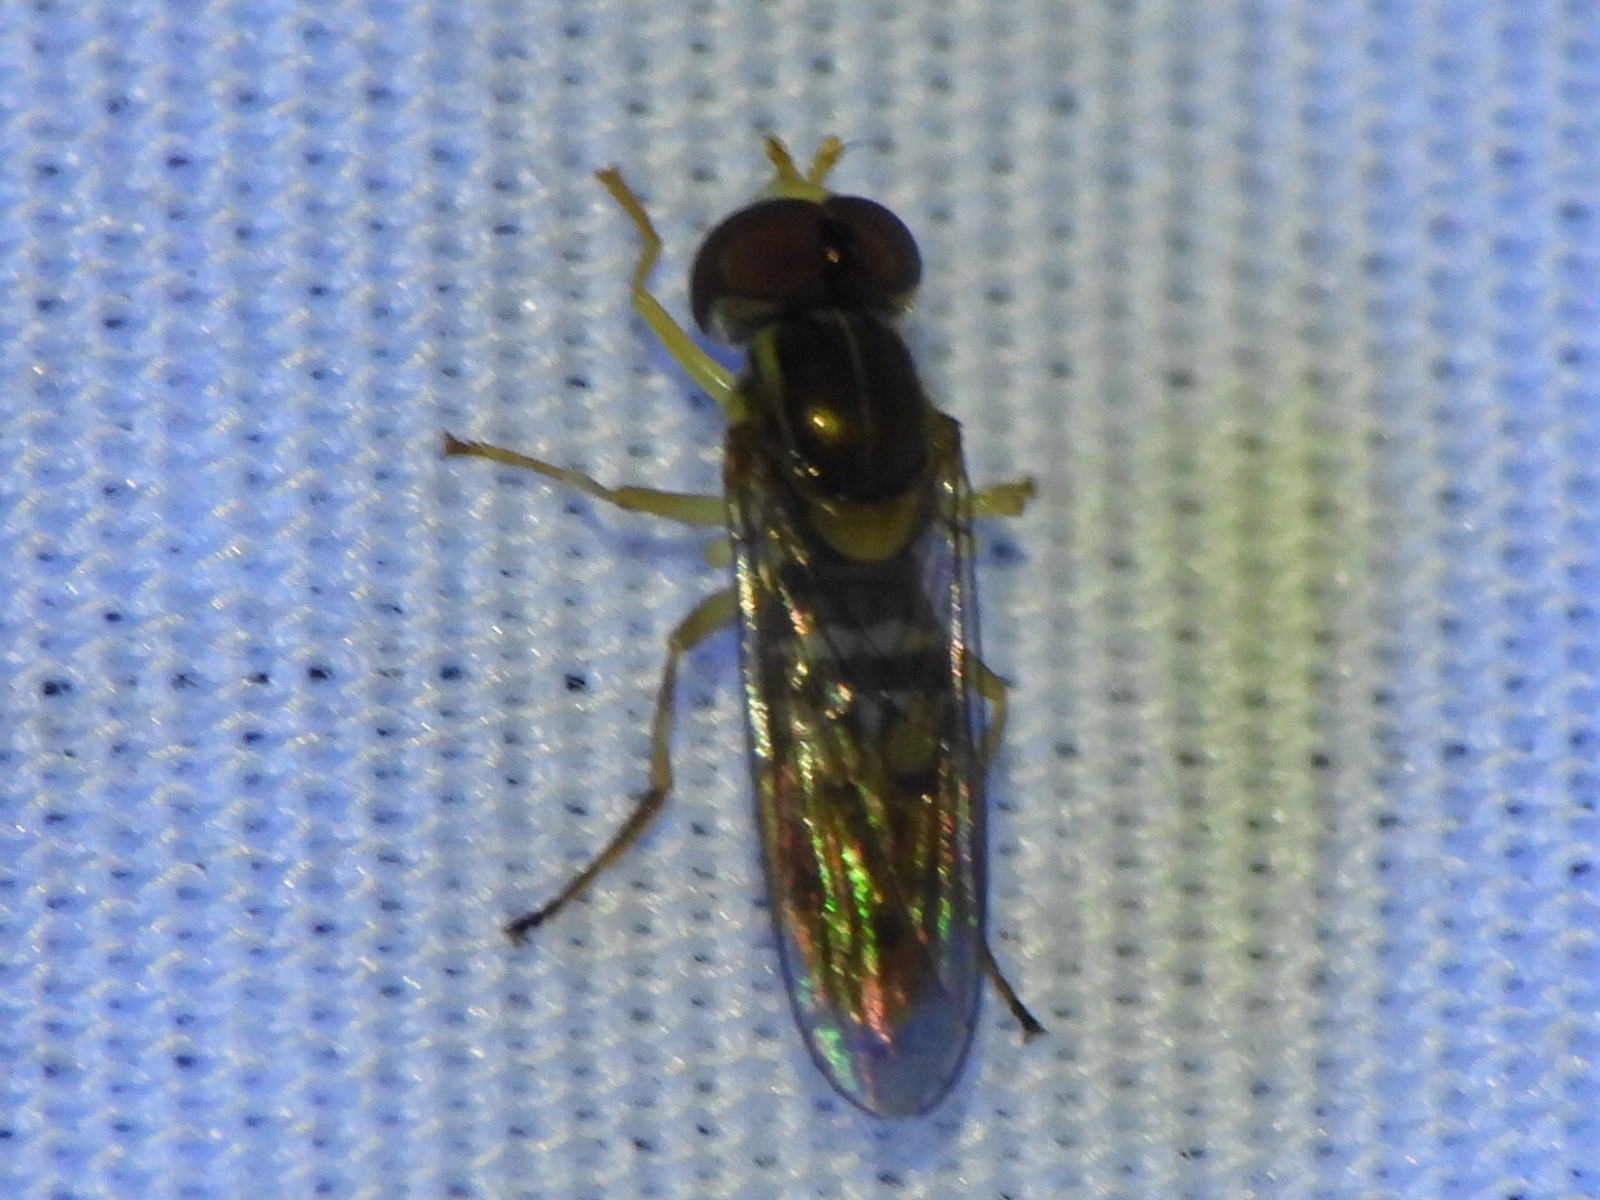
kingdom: Animalia
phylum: Arthropoda
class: Insecta
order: Diptera
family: Syrphidae
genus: Toxomerus
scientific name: Toxomerus marginatus
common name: Syrphid fly
